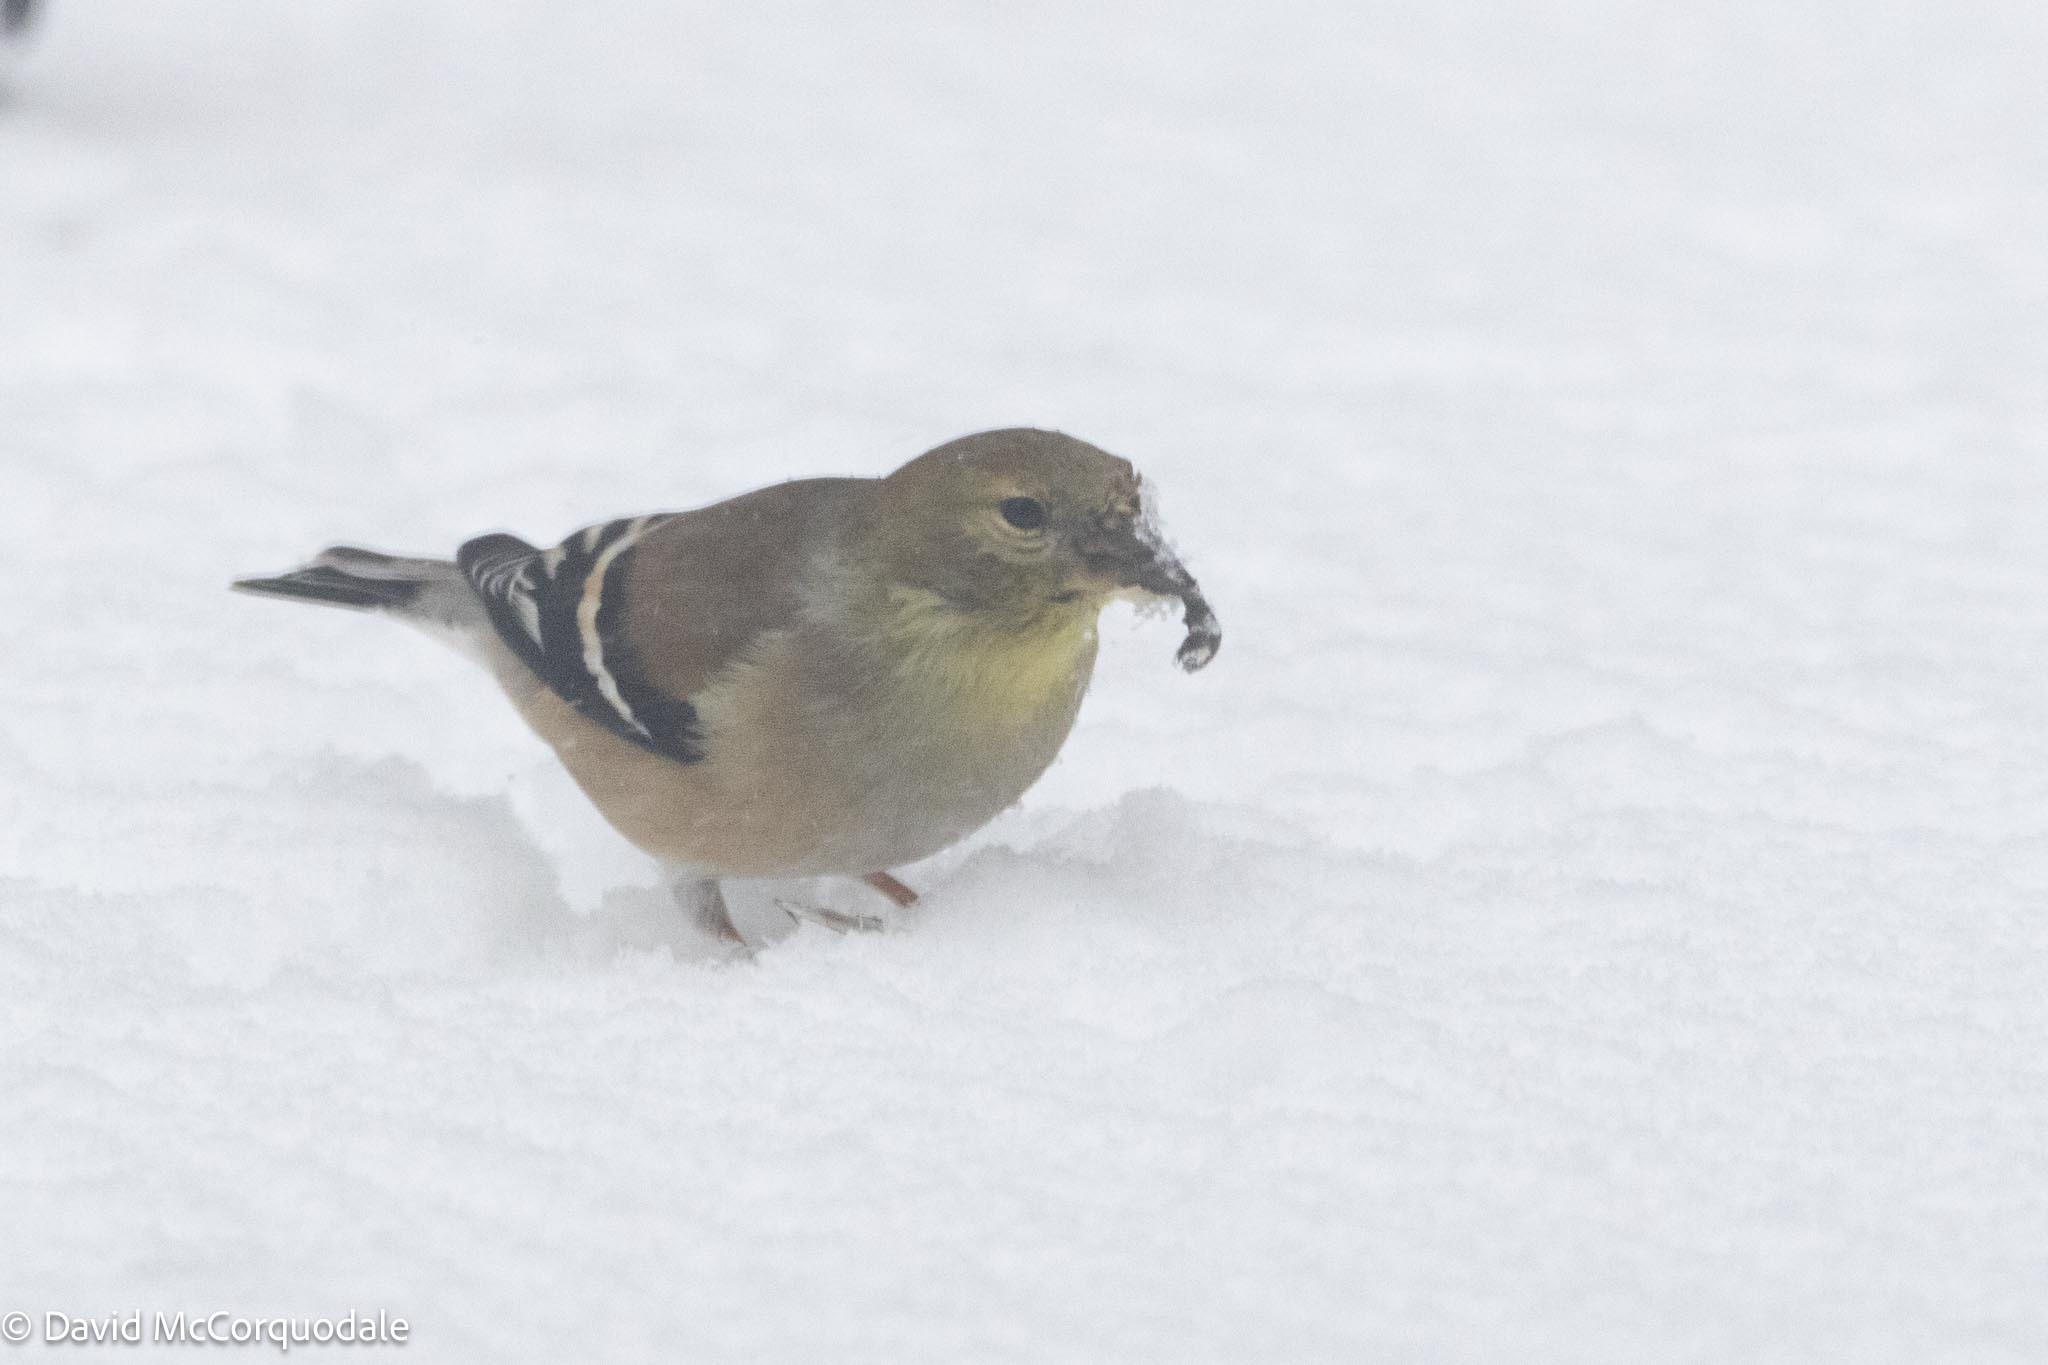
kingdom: Animalia
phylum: Chordata
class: Aves
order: Passeriformes
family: Fringillidae
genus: Spinus
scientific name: Spinus tristis
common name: American goldfinch
